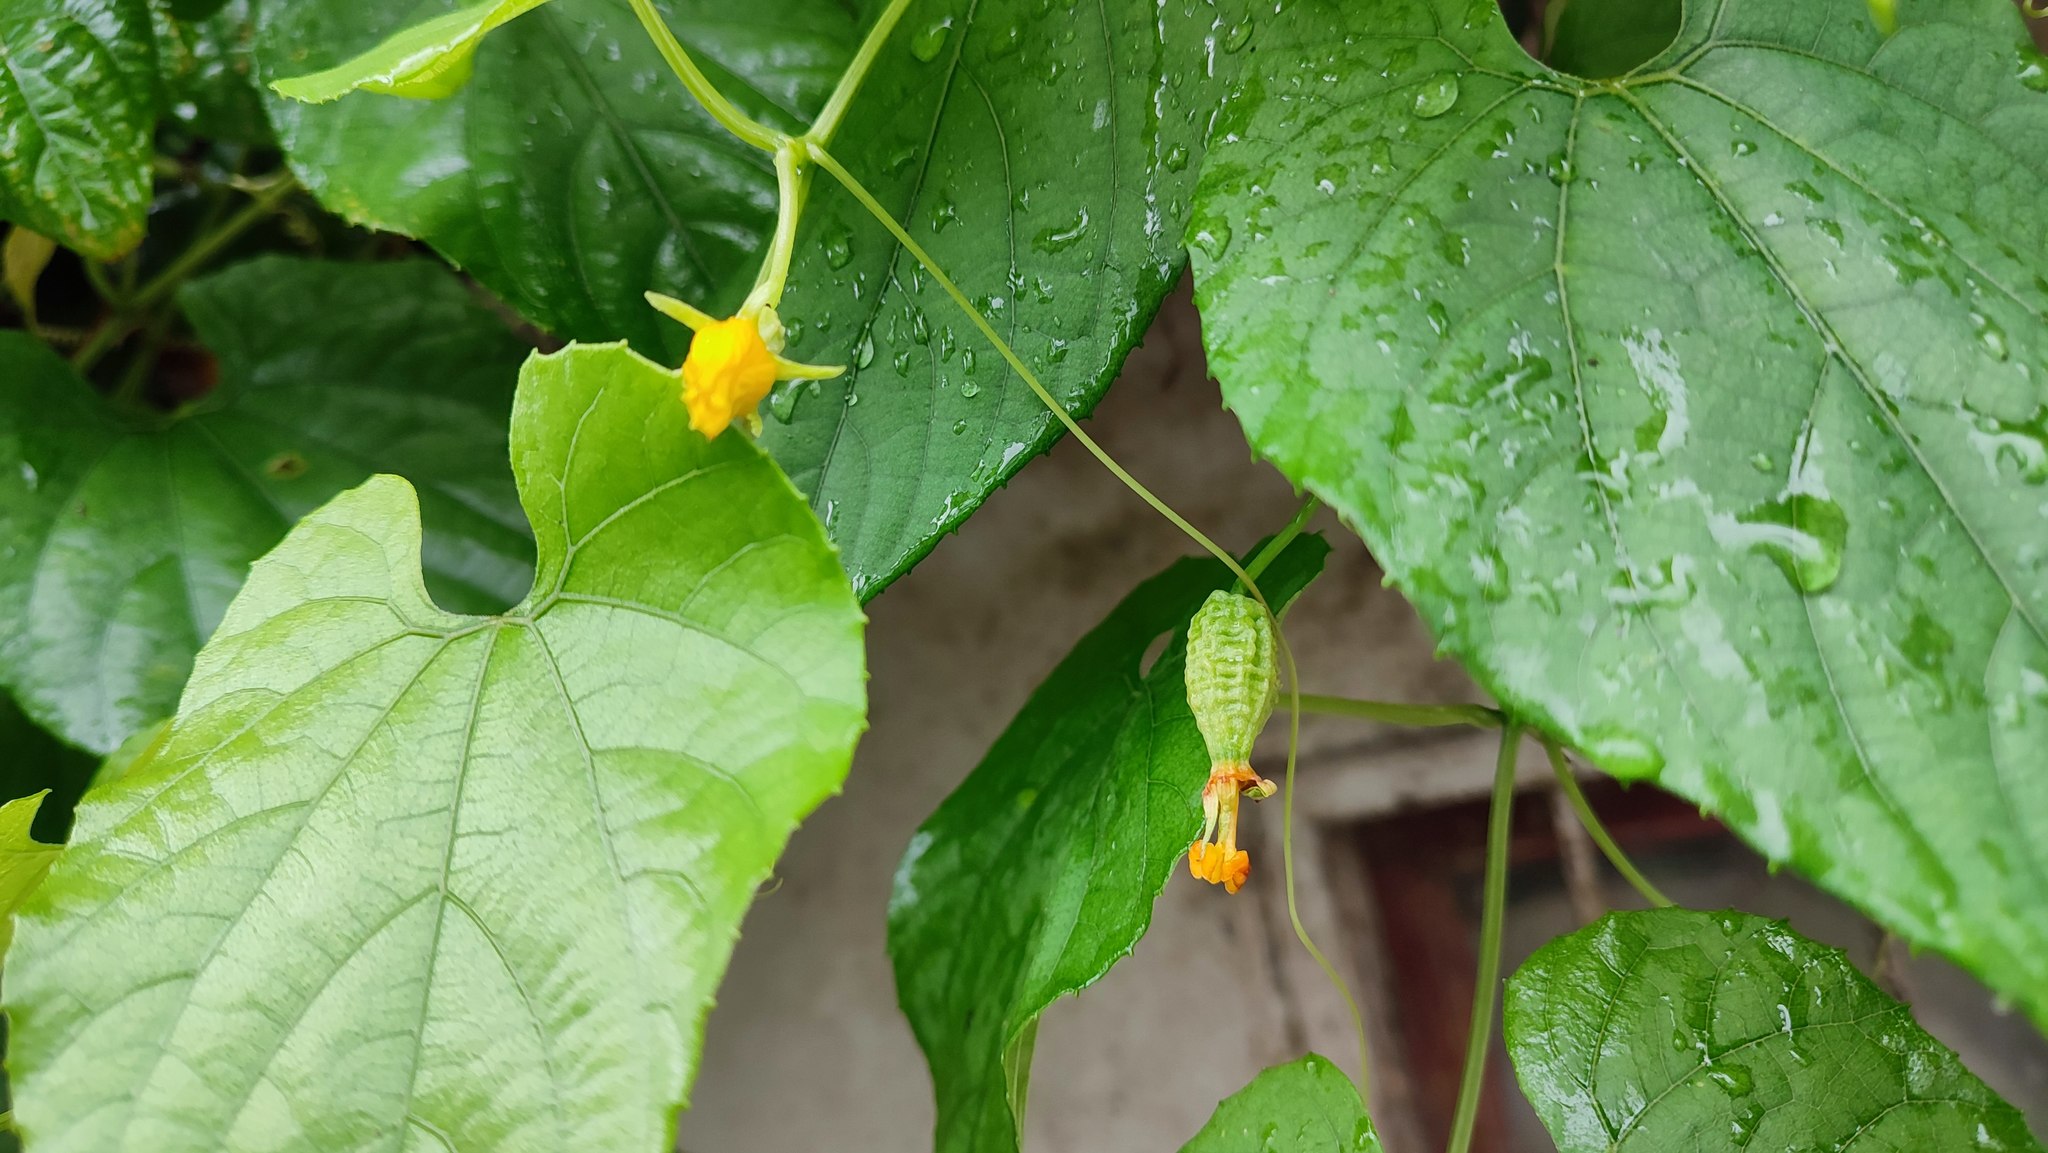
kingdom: Plantae
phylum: Tracheophyta
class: Magnoliopsida
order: Cucurbitales
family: Cucurbitaceae
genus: Thladiantha
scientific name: Thladiantha punctata
